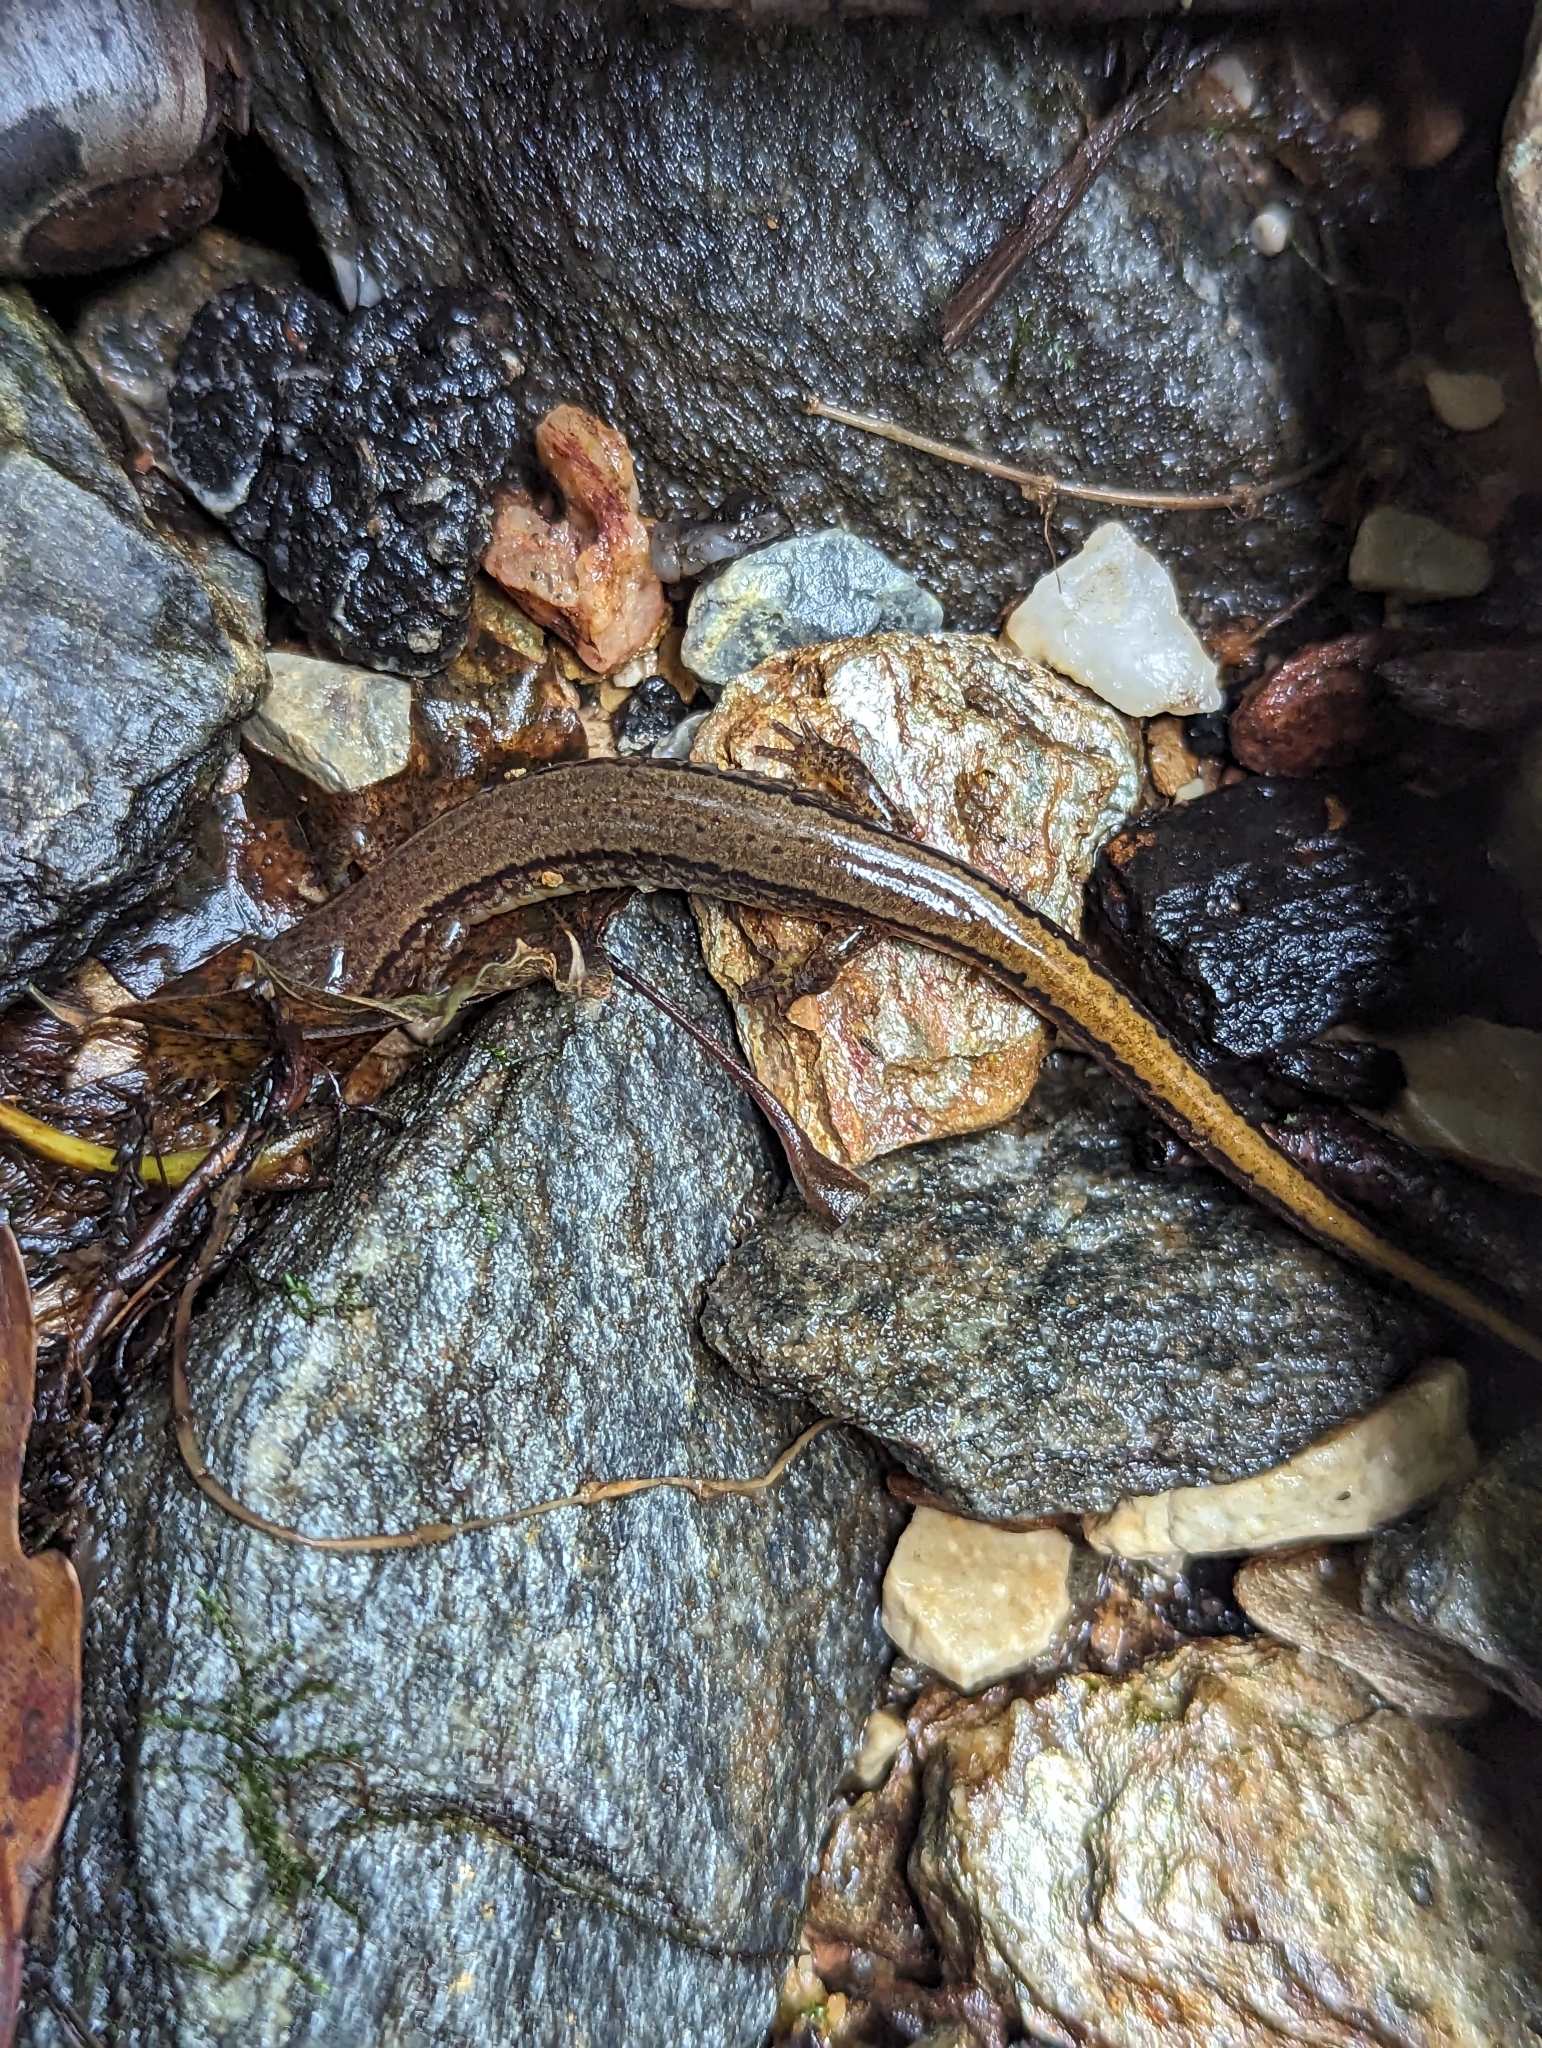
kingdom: Animalia
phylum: Chordata
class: Amphibia
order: Caudata
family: Plethodontidae
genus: Eurycea
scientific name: Eurycea bislineata
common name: Northern two-lined salamander
